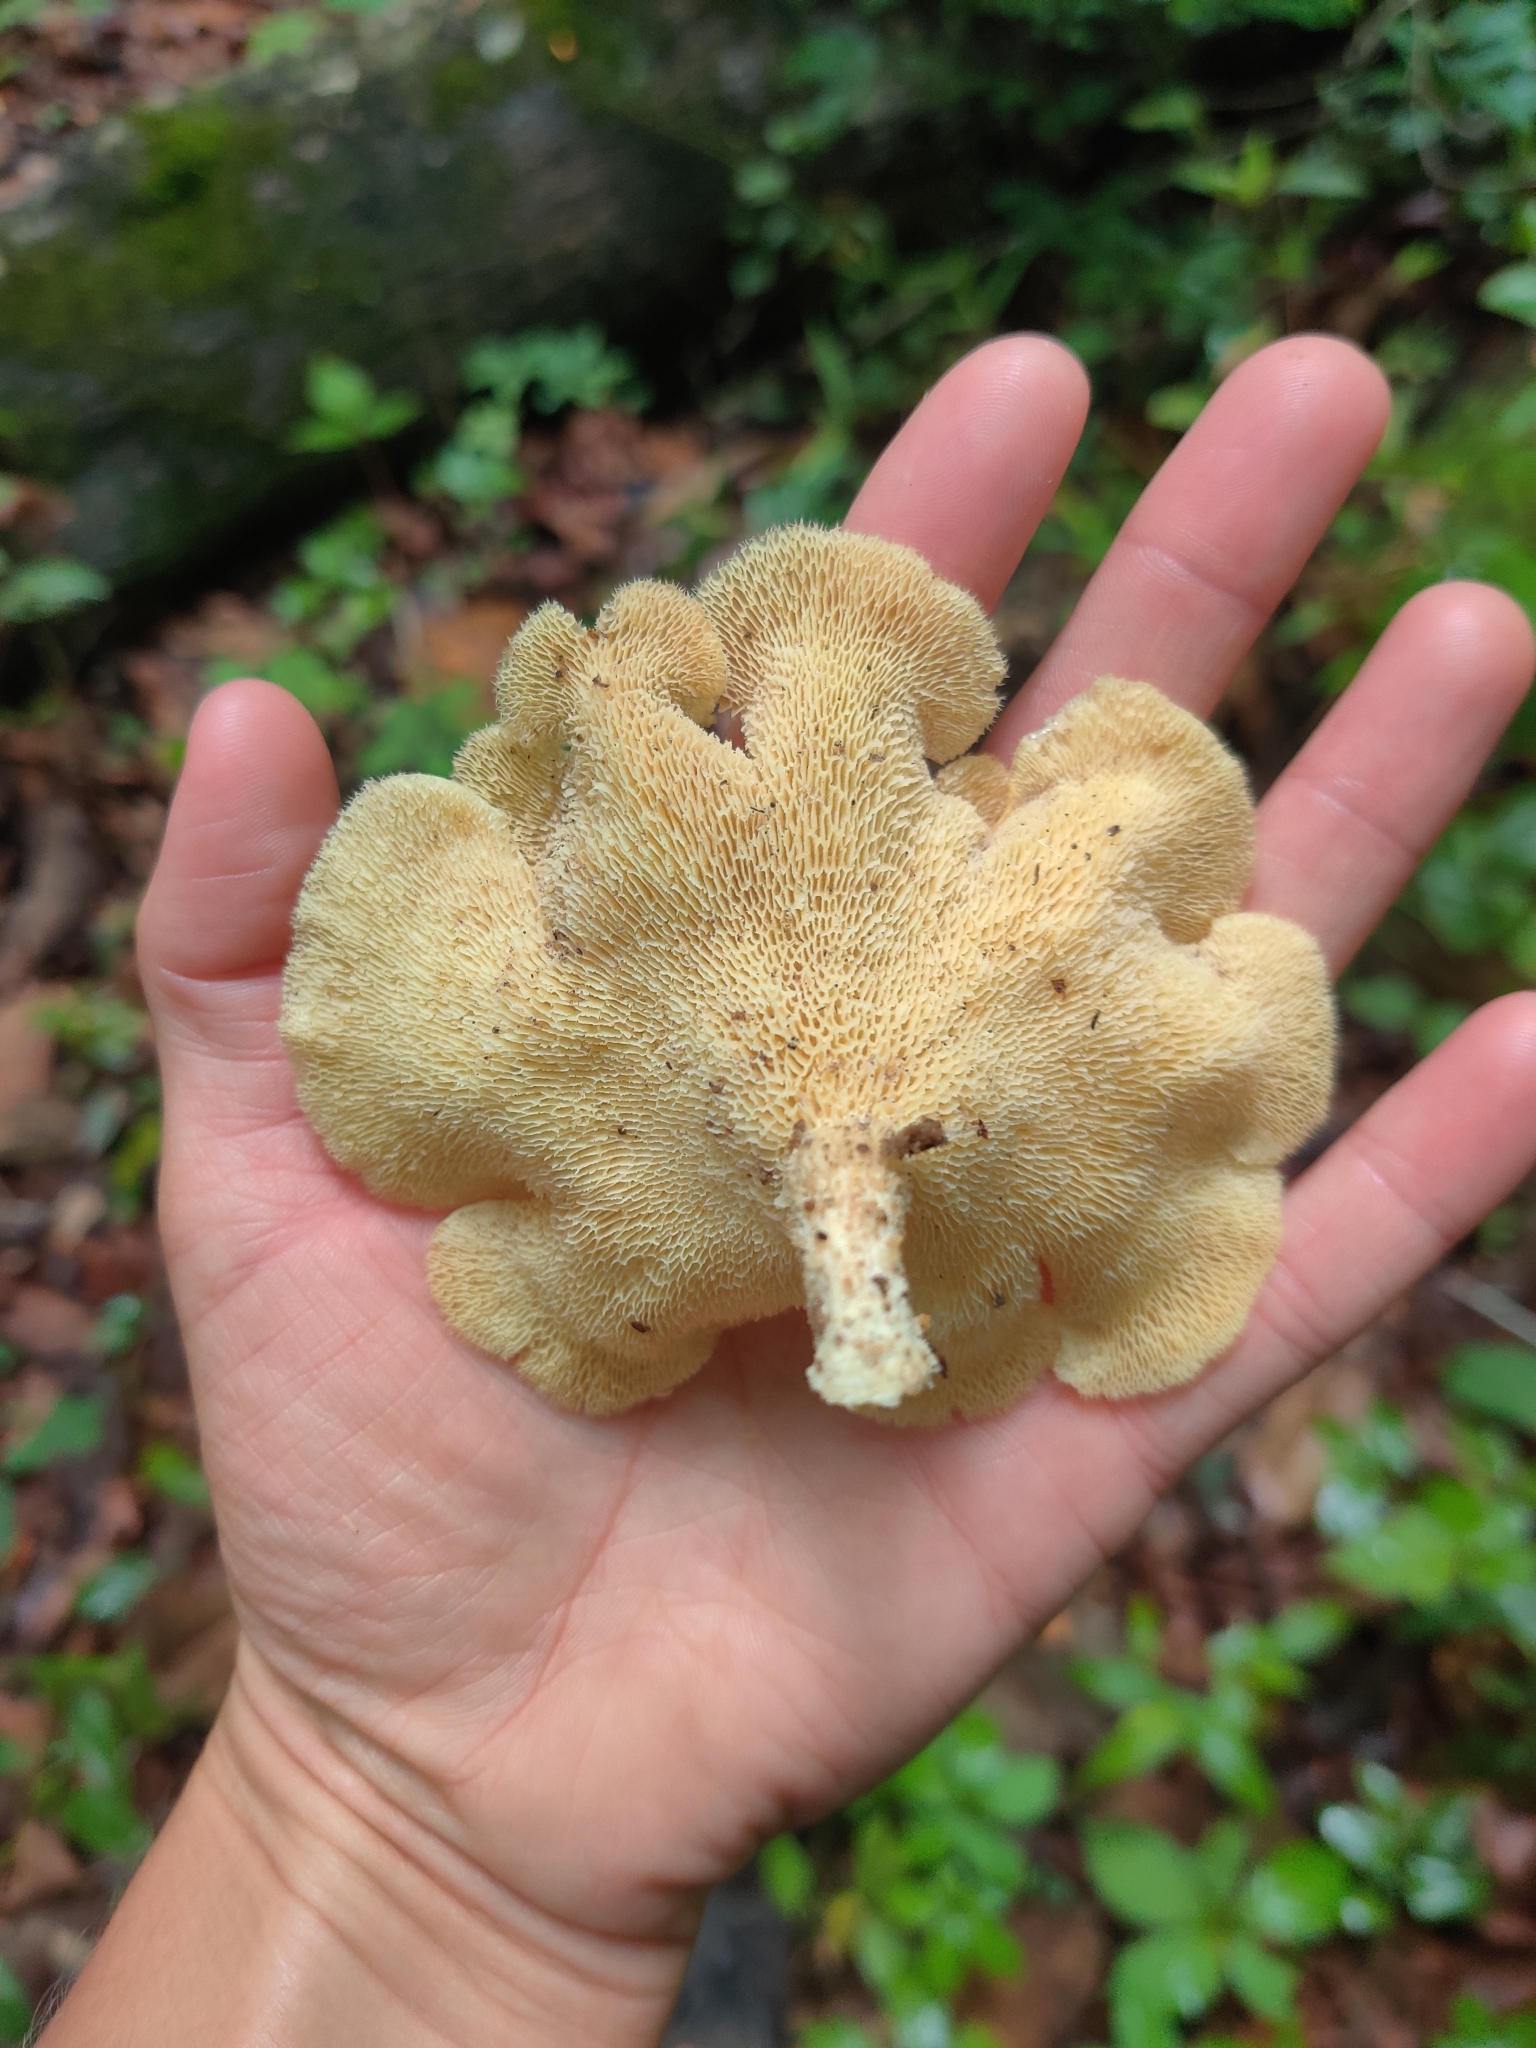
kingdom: Fungi
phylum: Basidiomycota
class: Agaricomycetes
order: Polyporales
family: Polyporaceae
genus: Favolus
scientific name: Favolus tenuiculus
